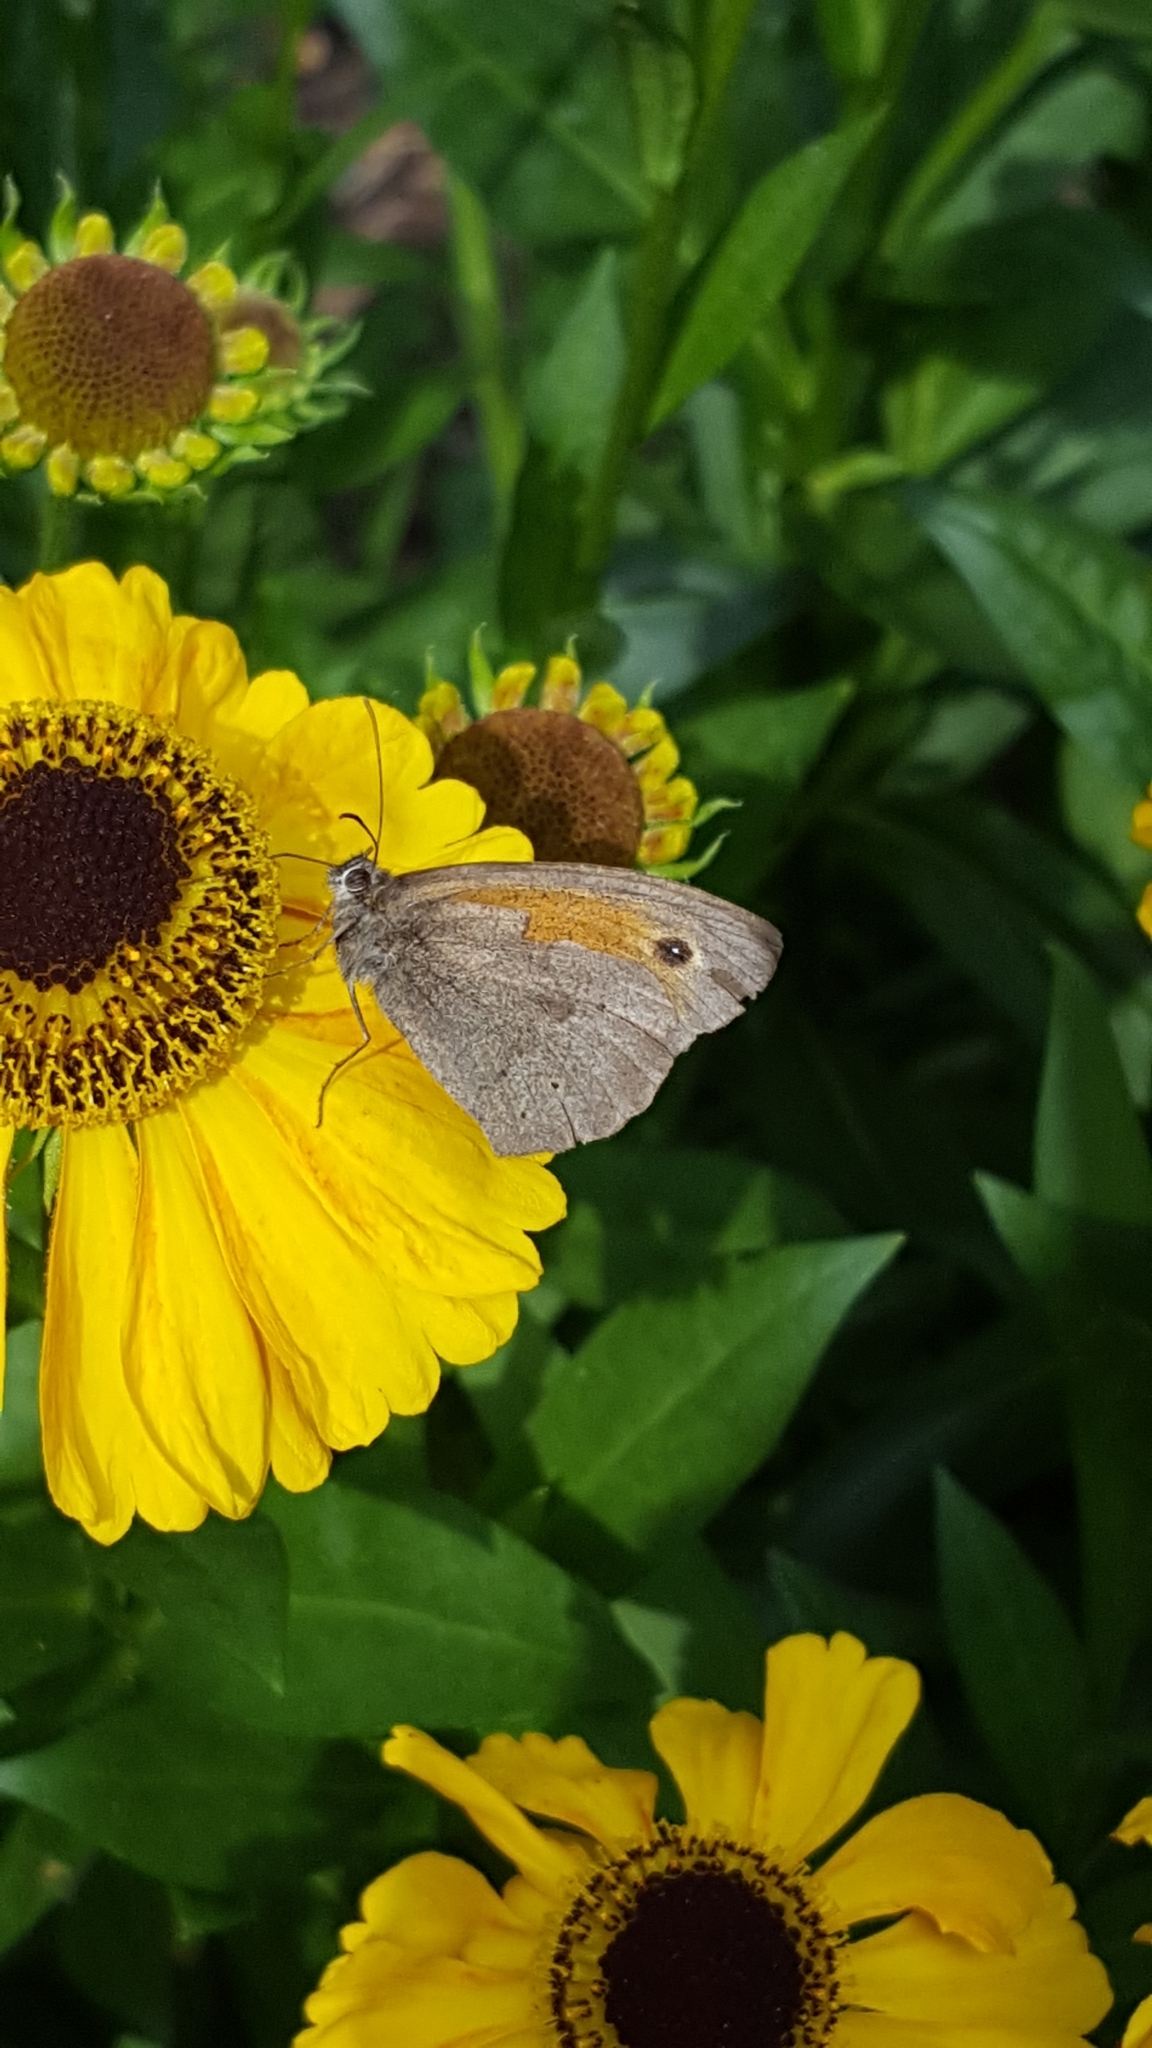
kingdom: Animalia
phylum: Arthropoda
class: Insecta
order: Lepidoptera
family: Nymphalidae
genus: Maniola
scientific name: Maniola jurtina
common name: Meadow brown
